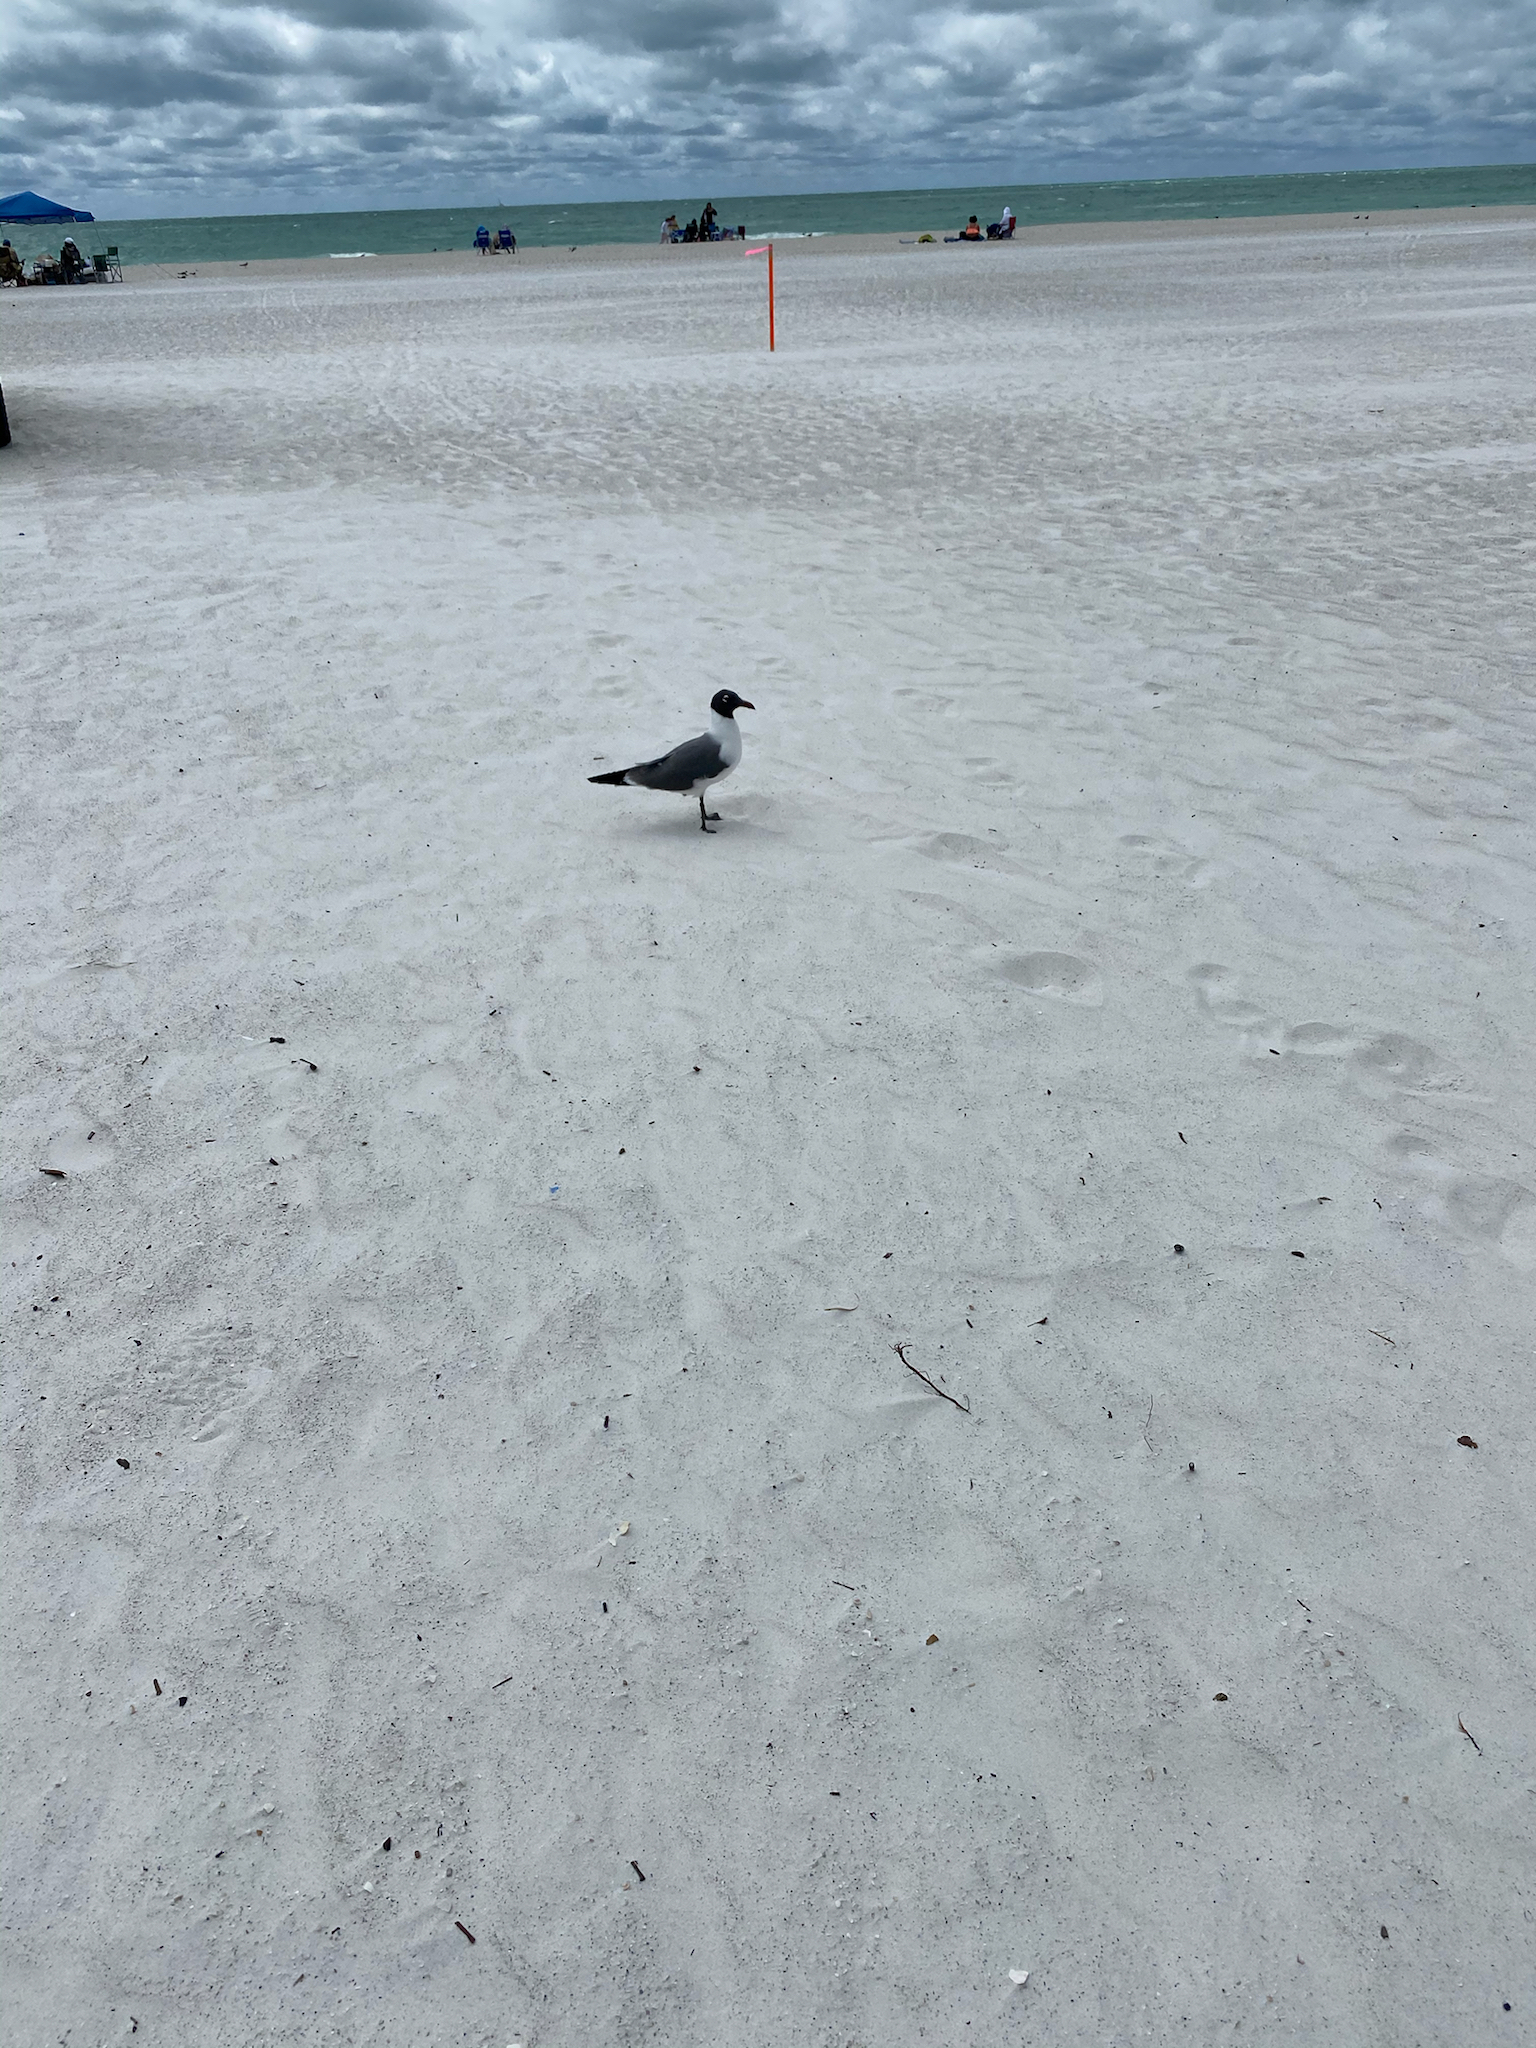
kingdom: Animalia
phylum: Chordata
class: Aves
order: Charadriiformes
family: Laridae
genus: Leucophaeus
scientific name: Leucophaeus atricilla
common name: Laughing gull
